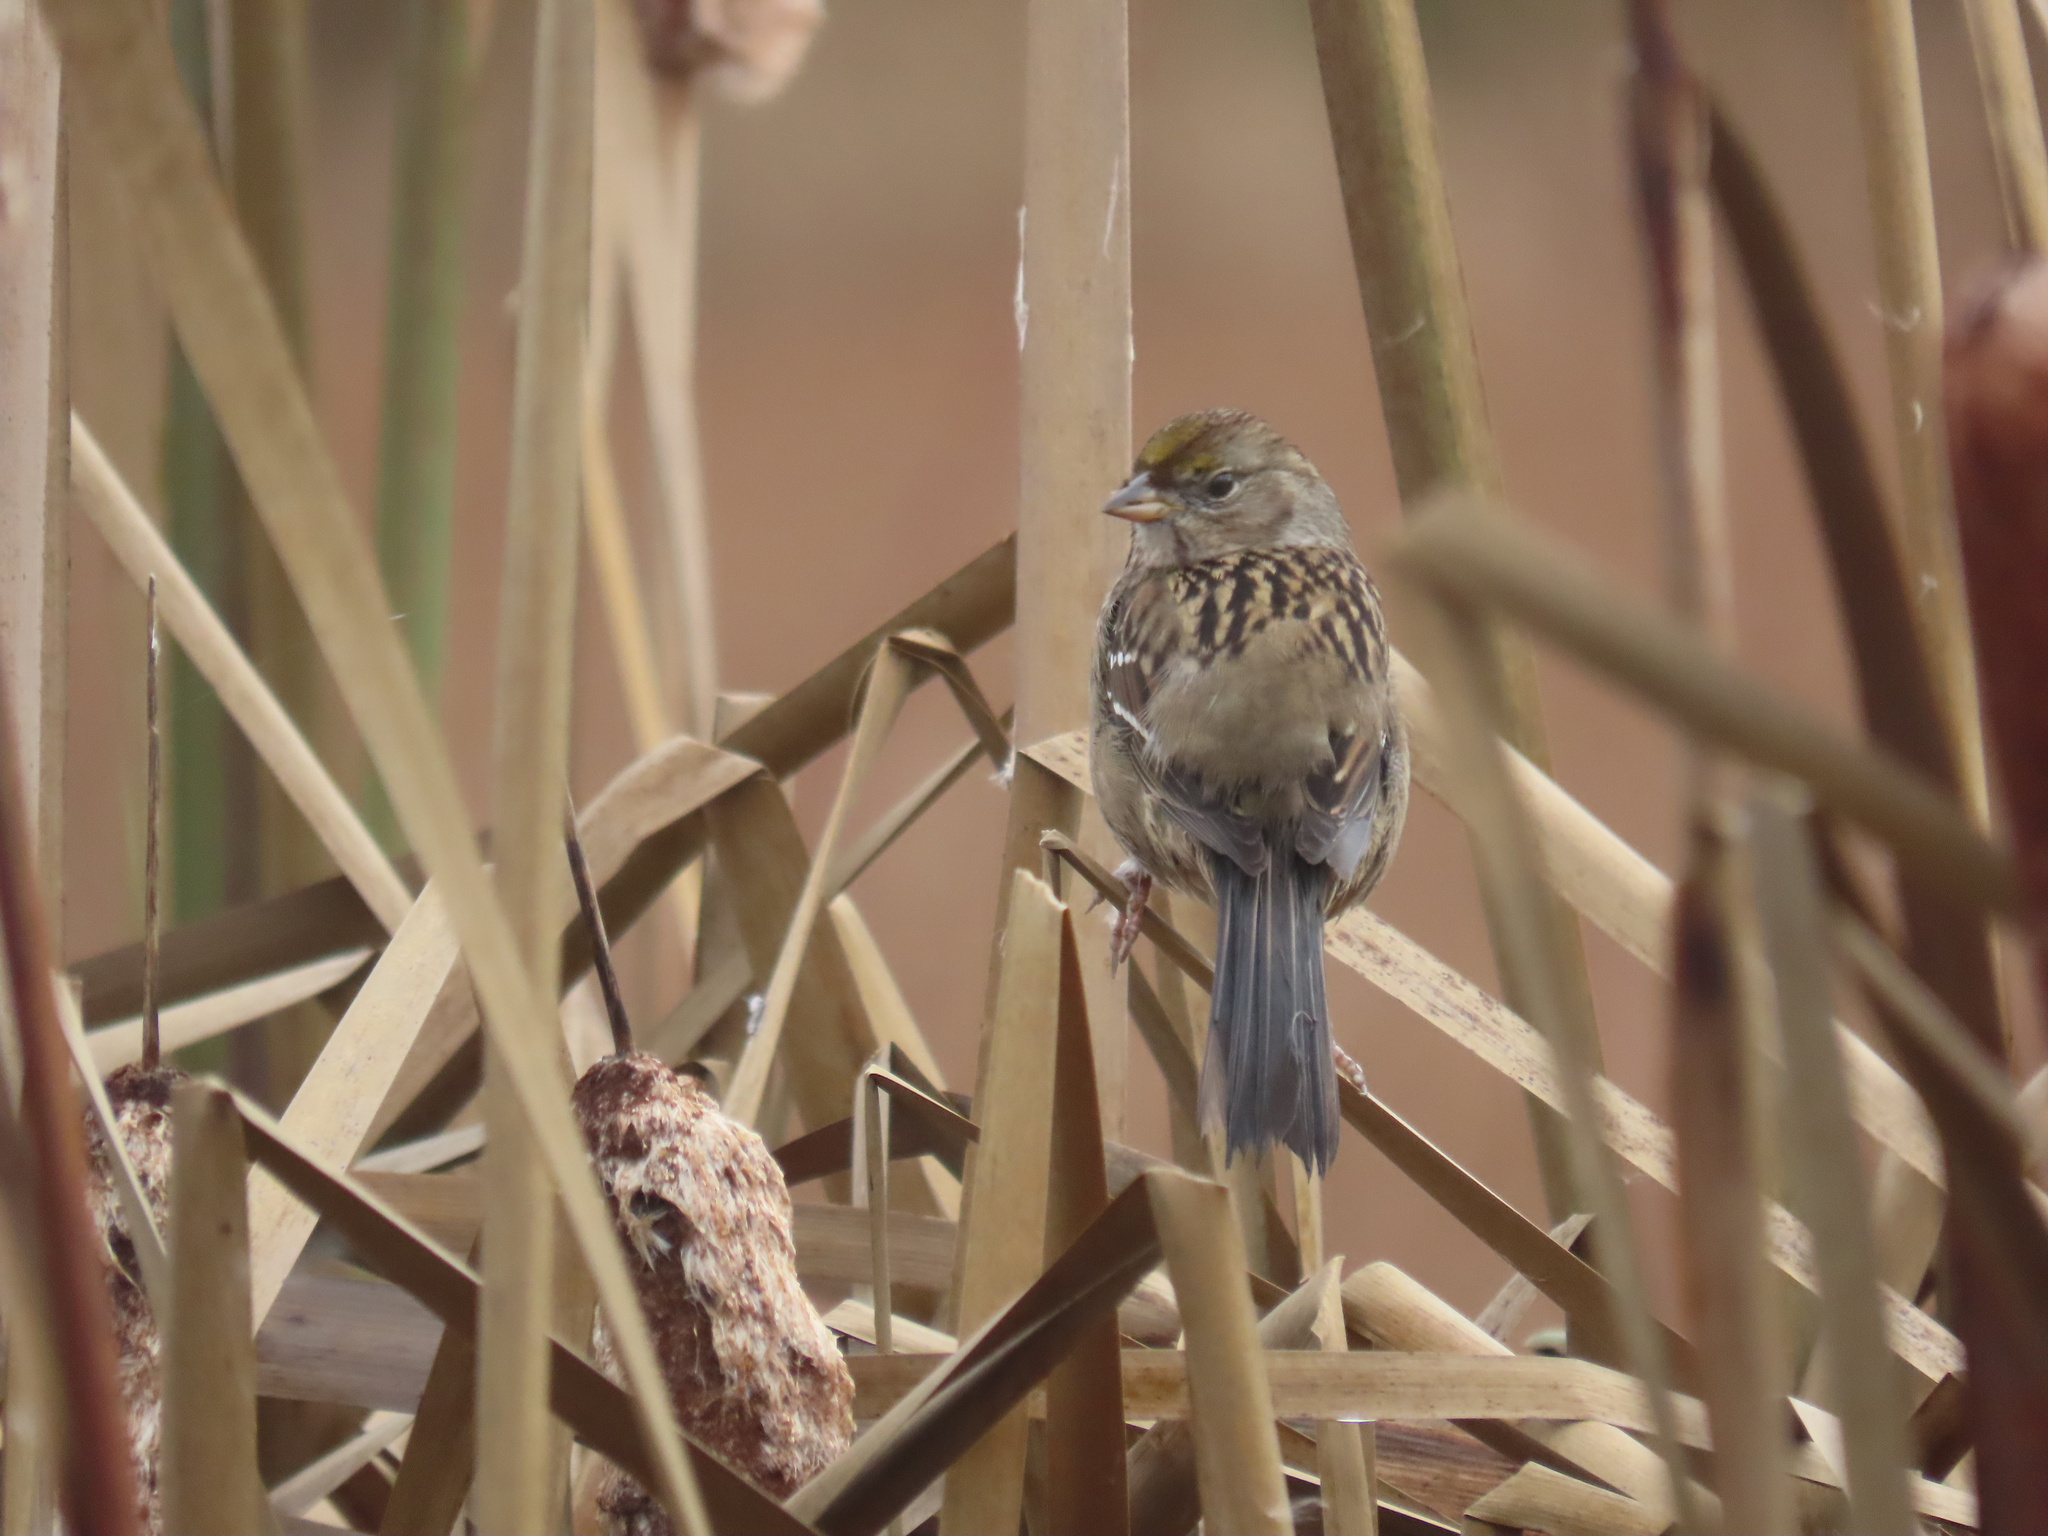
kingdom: Animalia
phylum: Chordata
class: Aves
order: Passeriformes
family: Passerellidae
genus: Zonotrichia
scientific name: Zonotrichia atricapilla
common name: Golden-crowned sparrow
